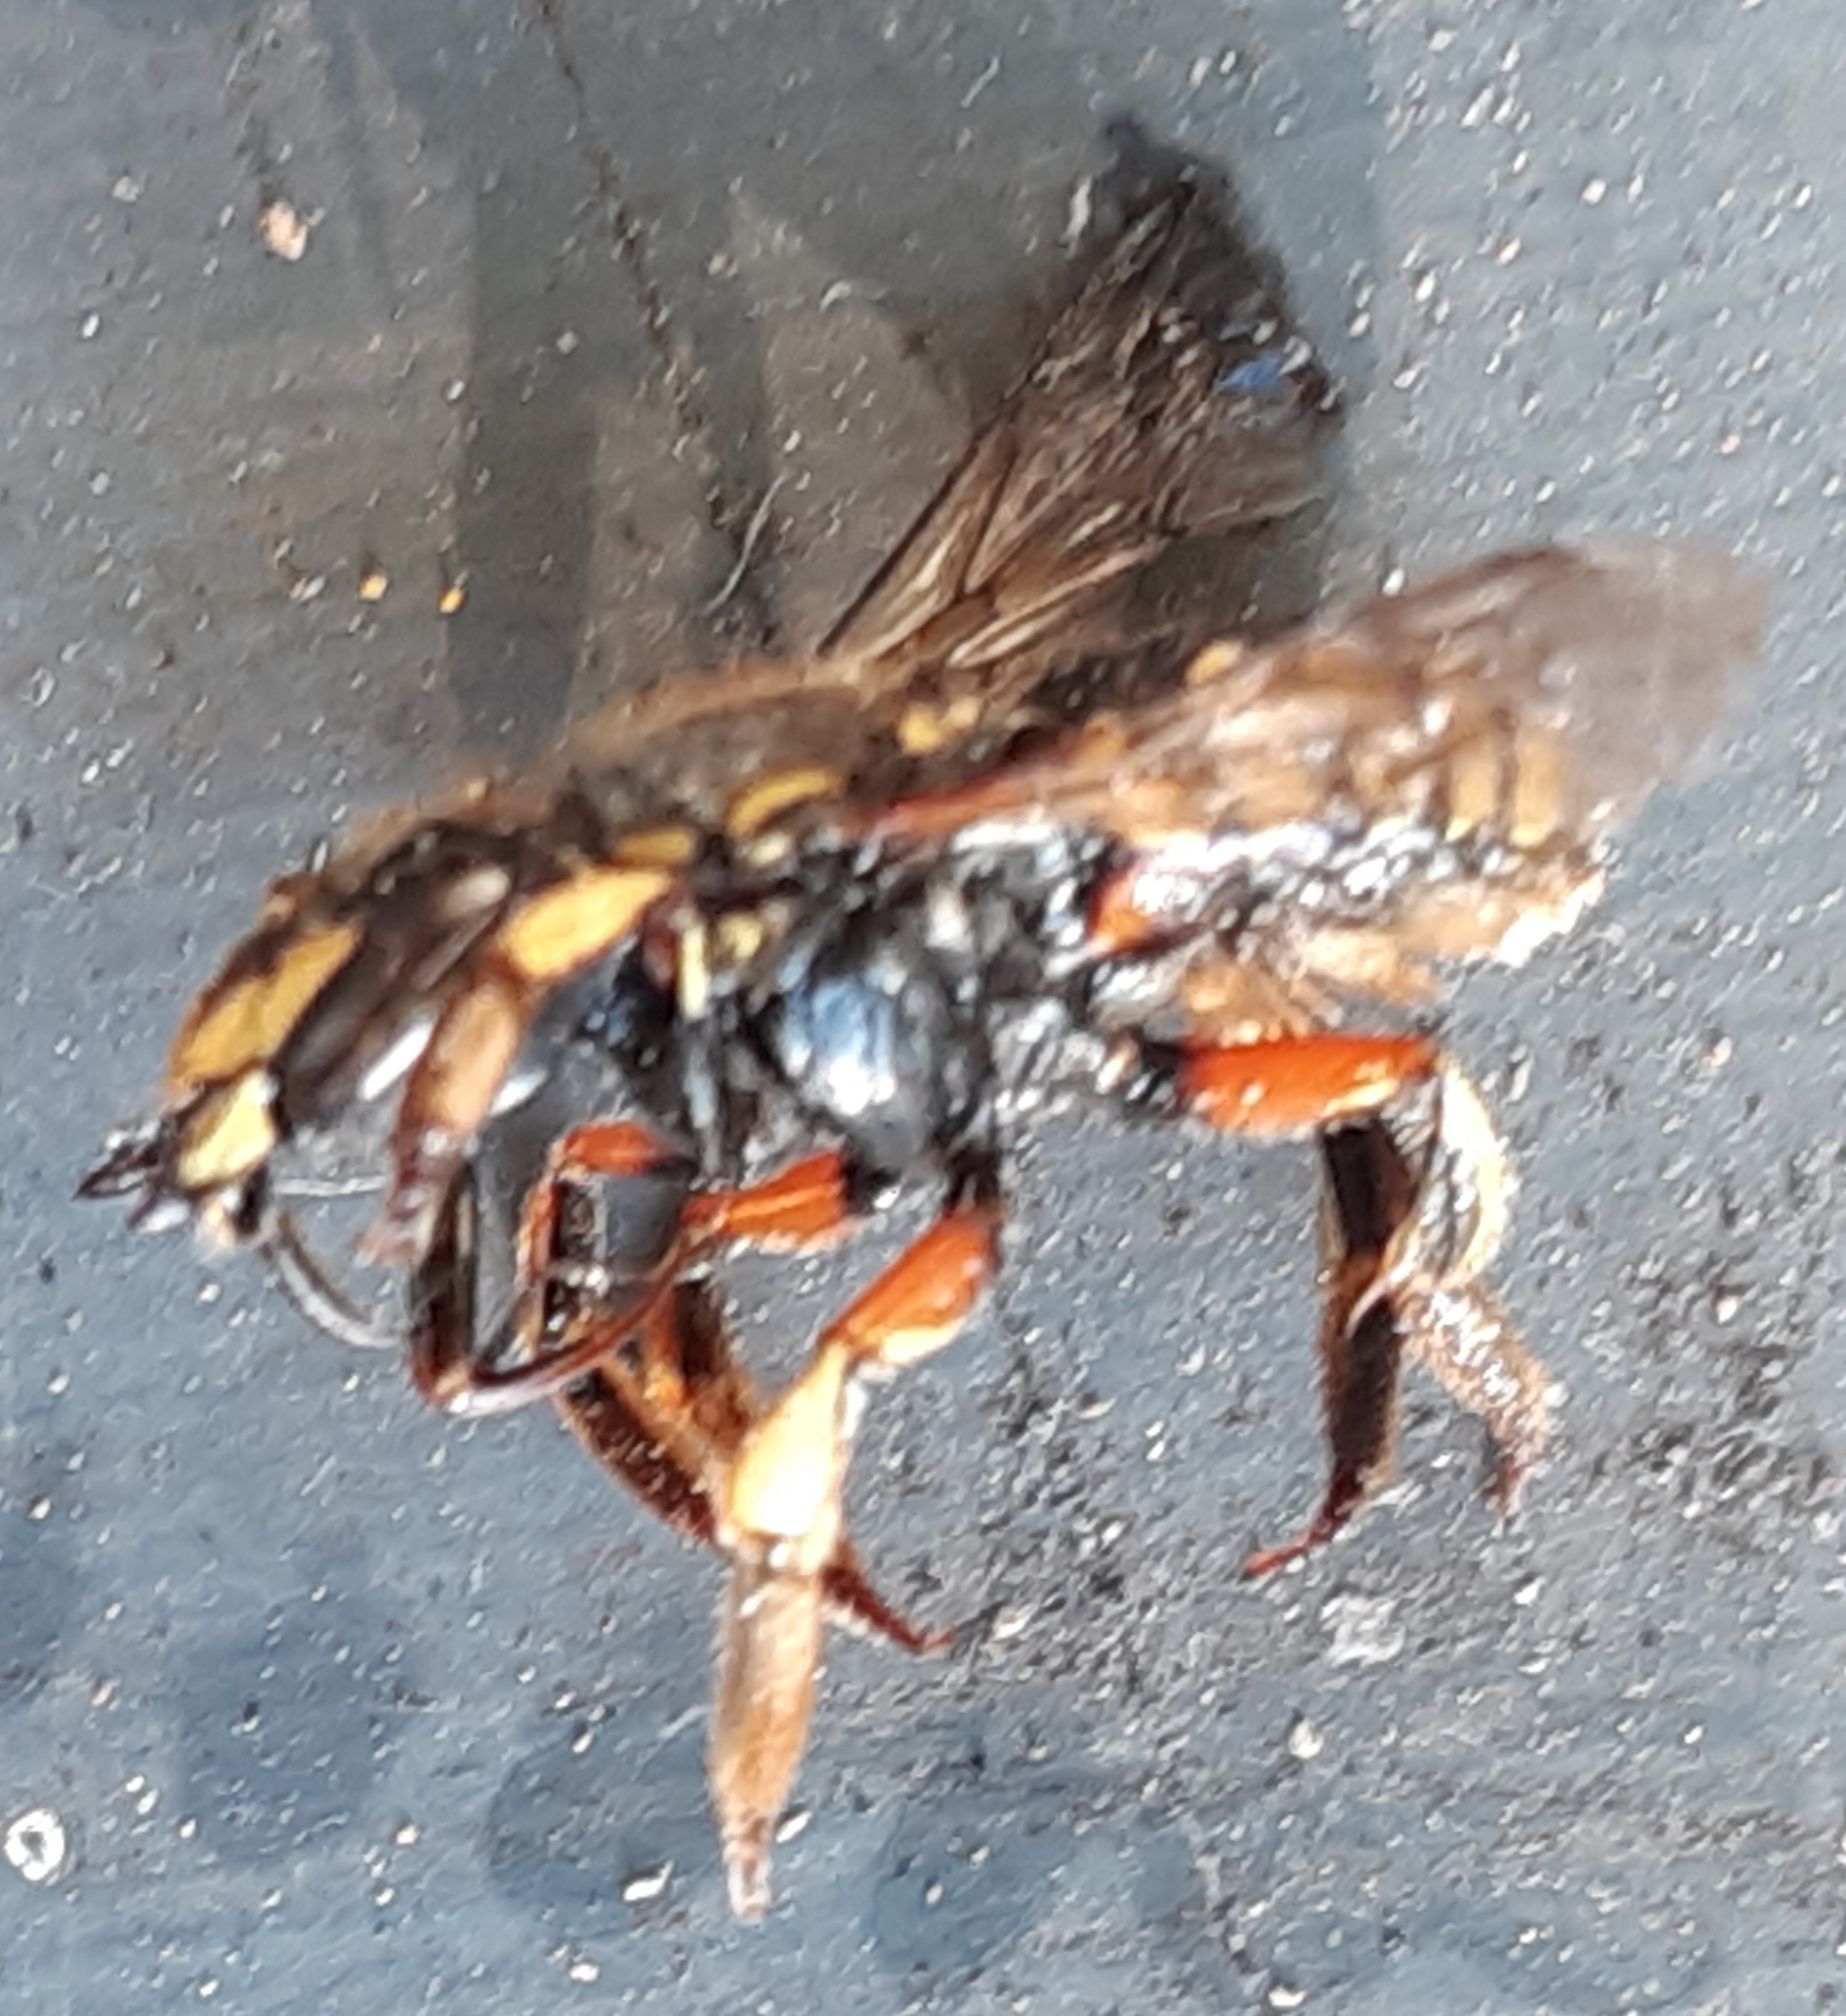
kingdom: Animalia
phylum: Arthropoda
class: Insecta
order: Hymenoptera
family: Megachilidae
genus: Anthidium
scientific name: Anthidium manicatum
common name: Wool carder bee
